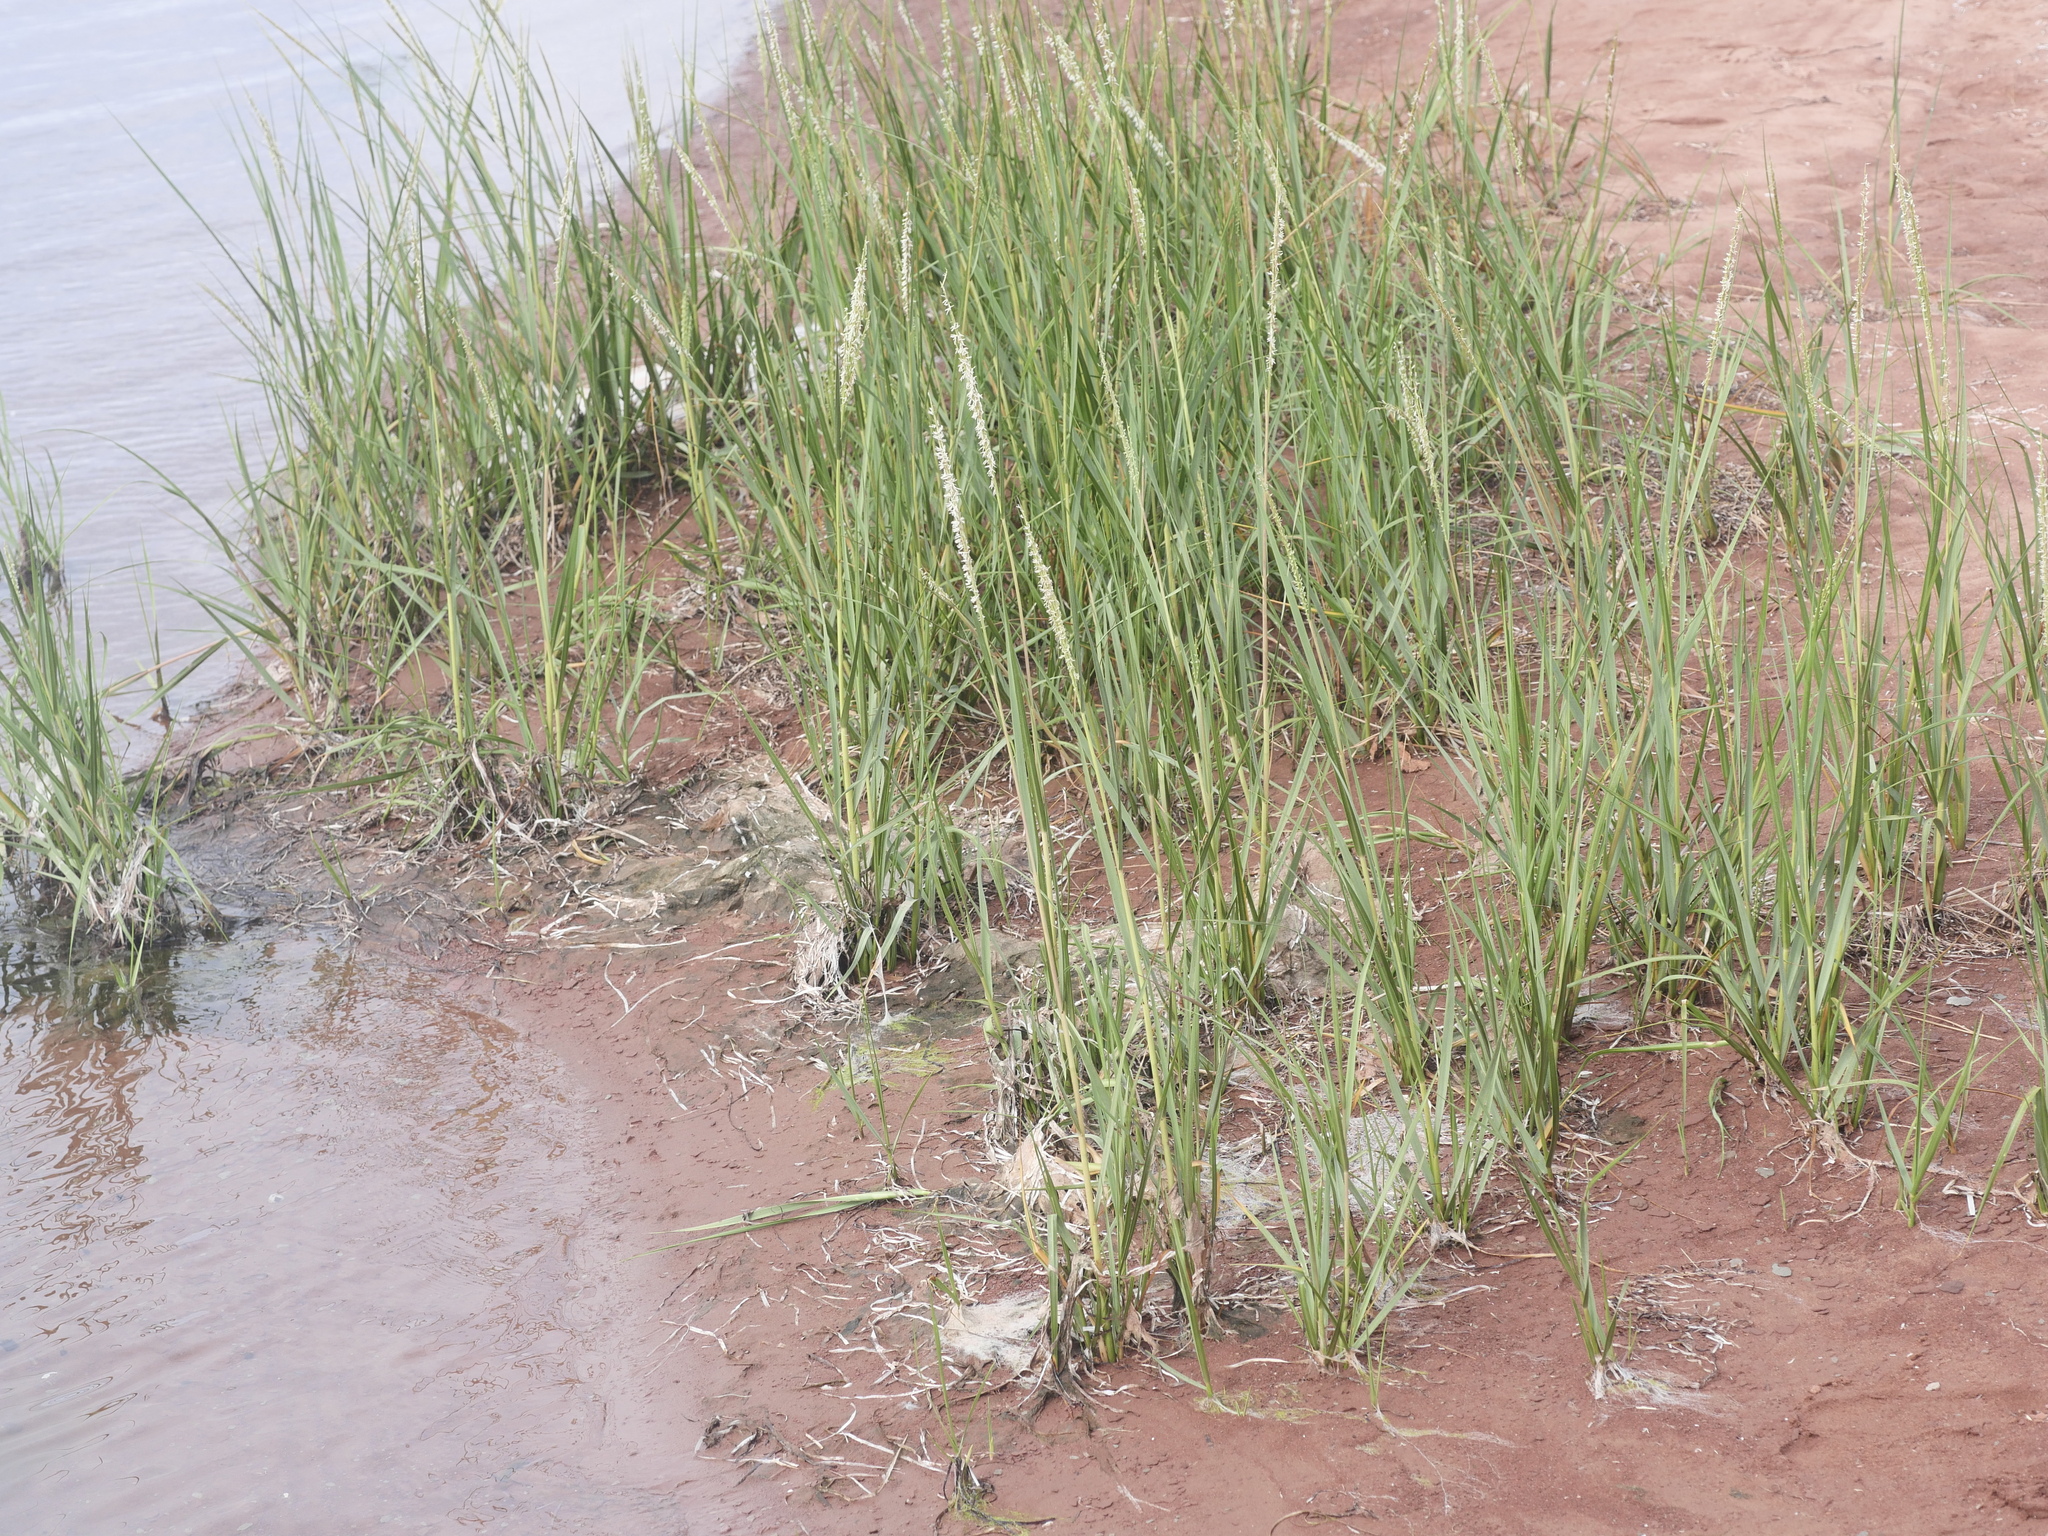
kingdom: Plantae
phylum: Tracheophyta
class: Liliopsida
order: Poales
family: Poaceae
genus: Sporobolus
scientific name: Sporobolus alterniflorus
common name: Atlantic cordgrass
